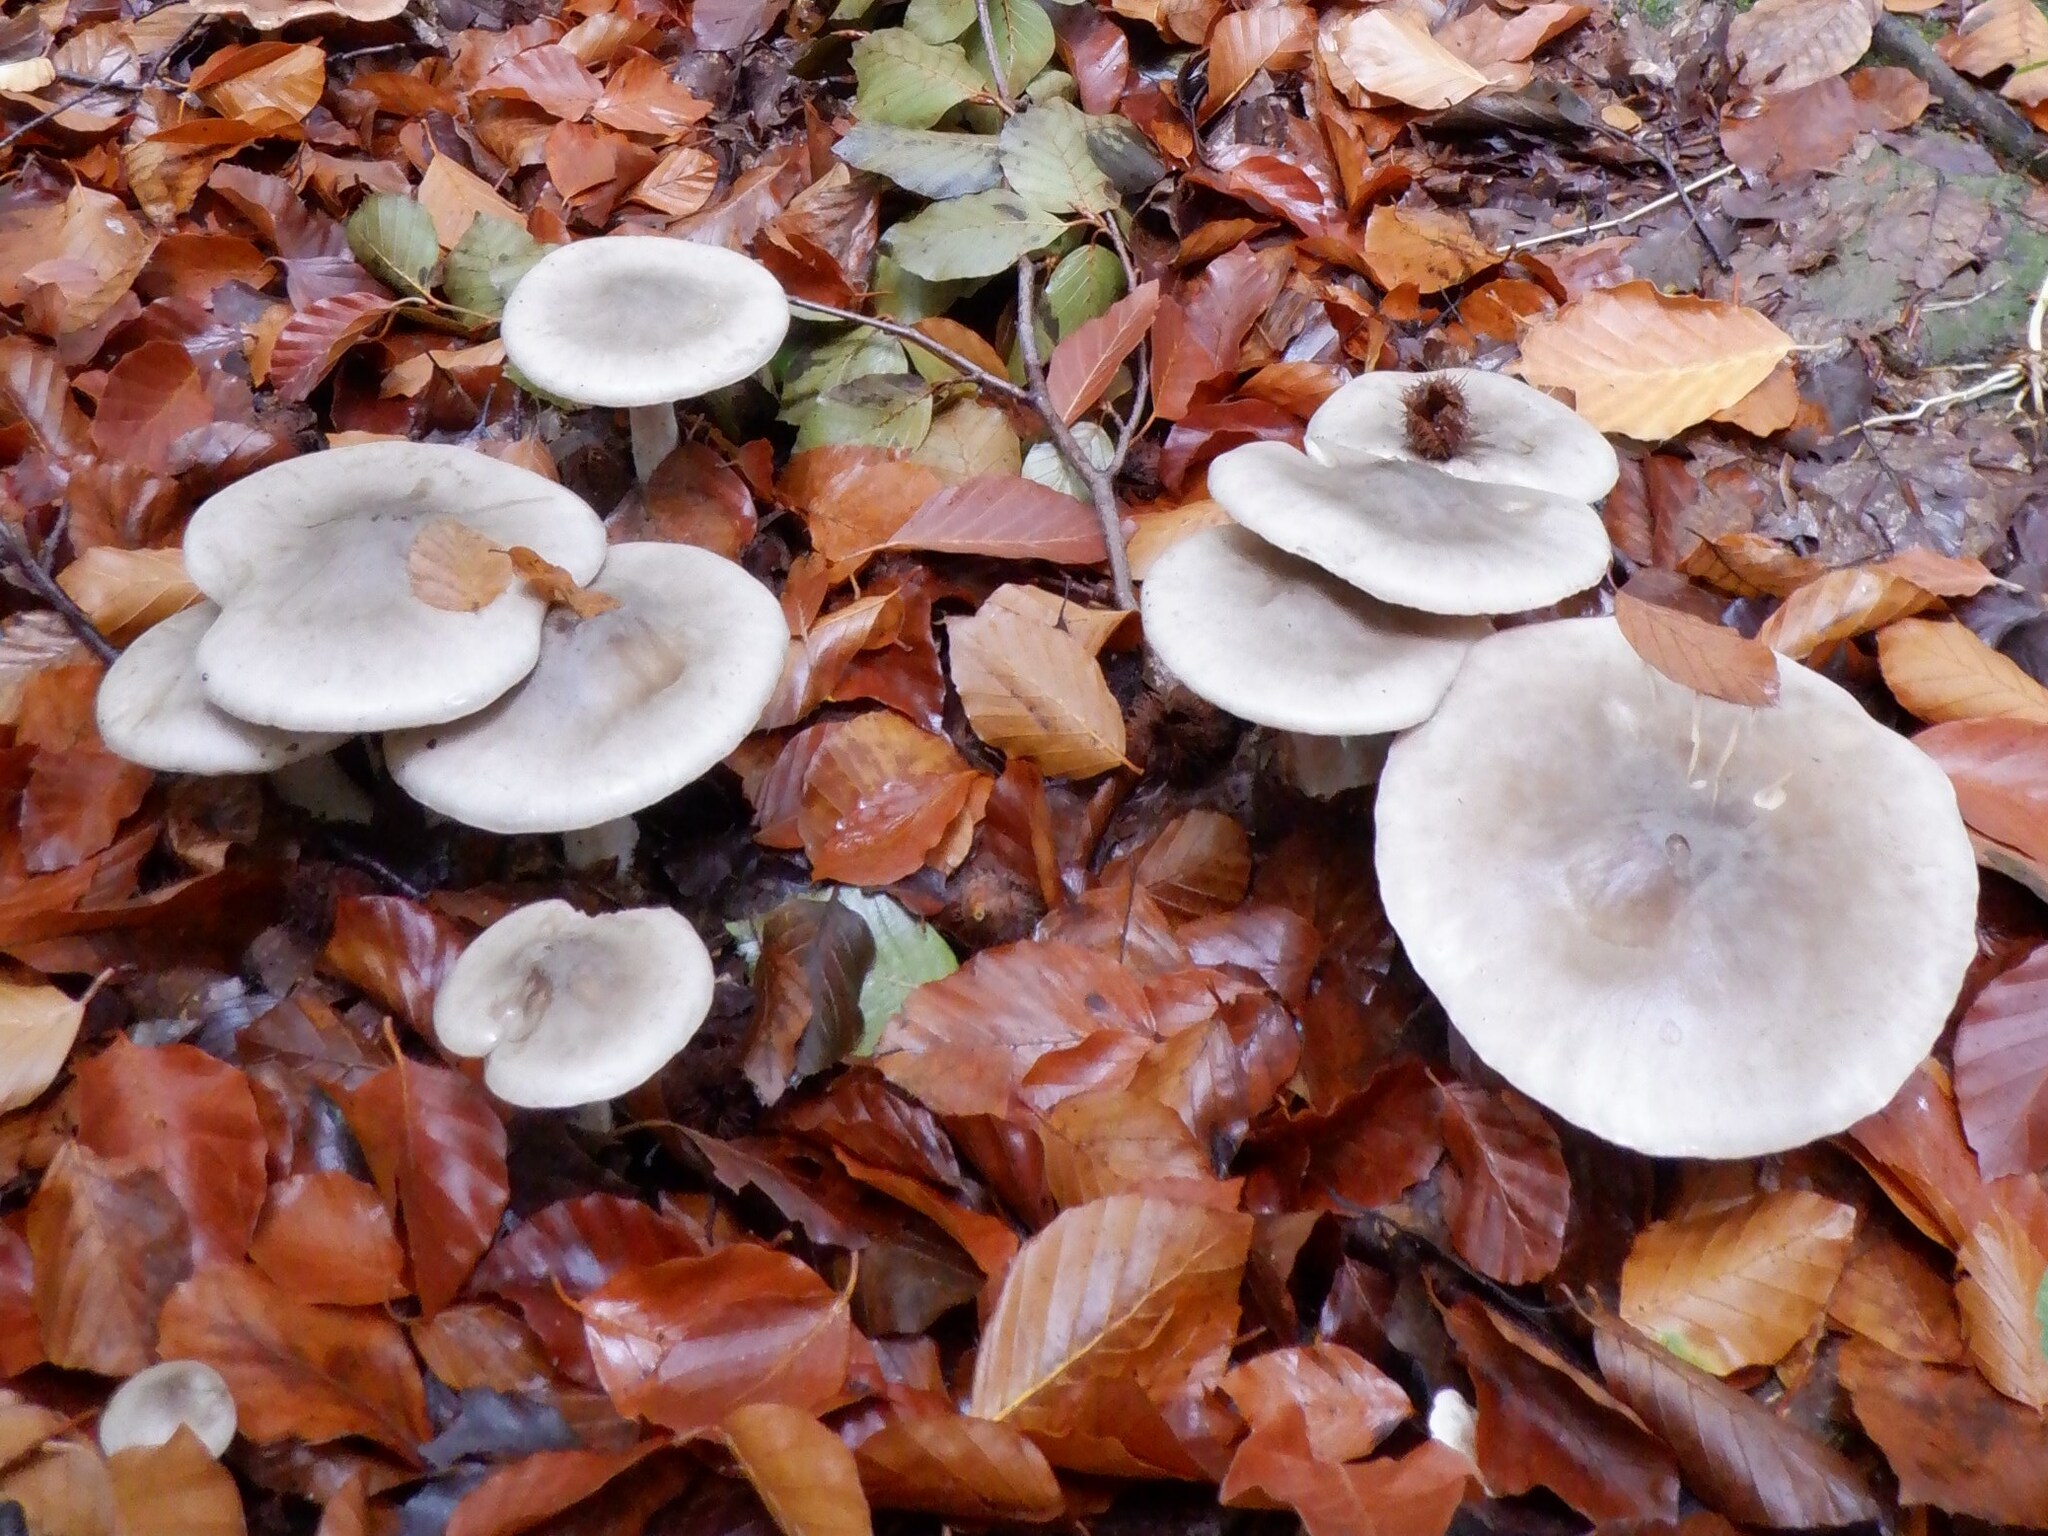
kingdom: Fungi
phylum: Basidiomycota
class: Agaricomycetes
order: Agaricales
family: Tricholomataceae
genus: Clitocybe
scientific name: Clitocybe nebularis
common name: Clouded agaric
